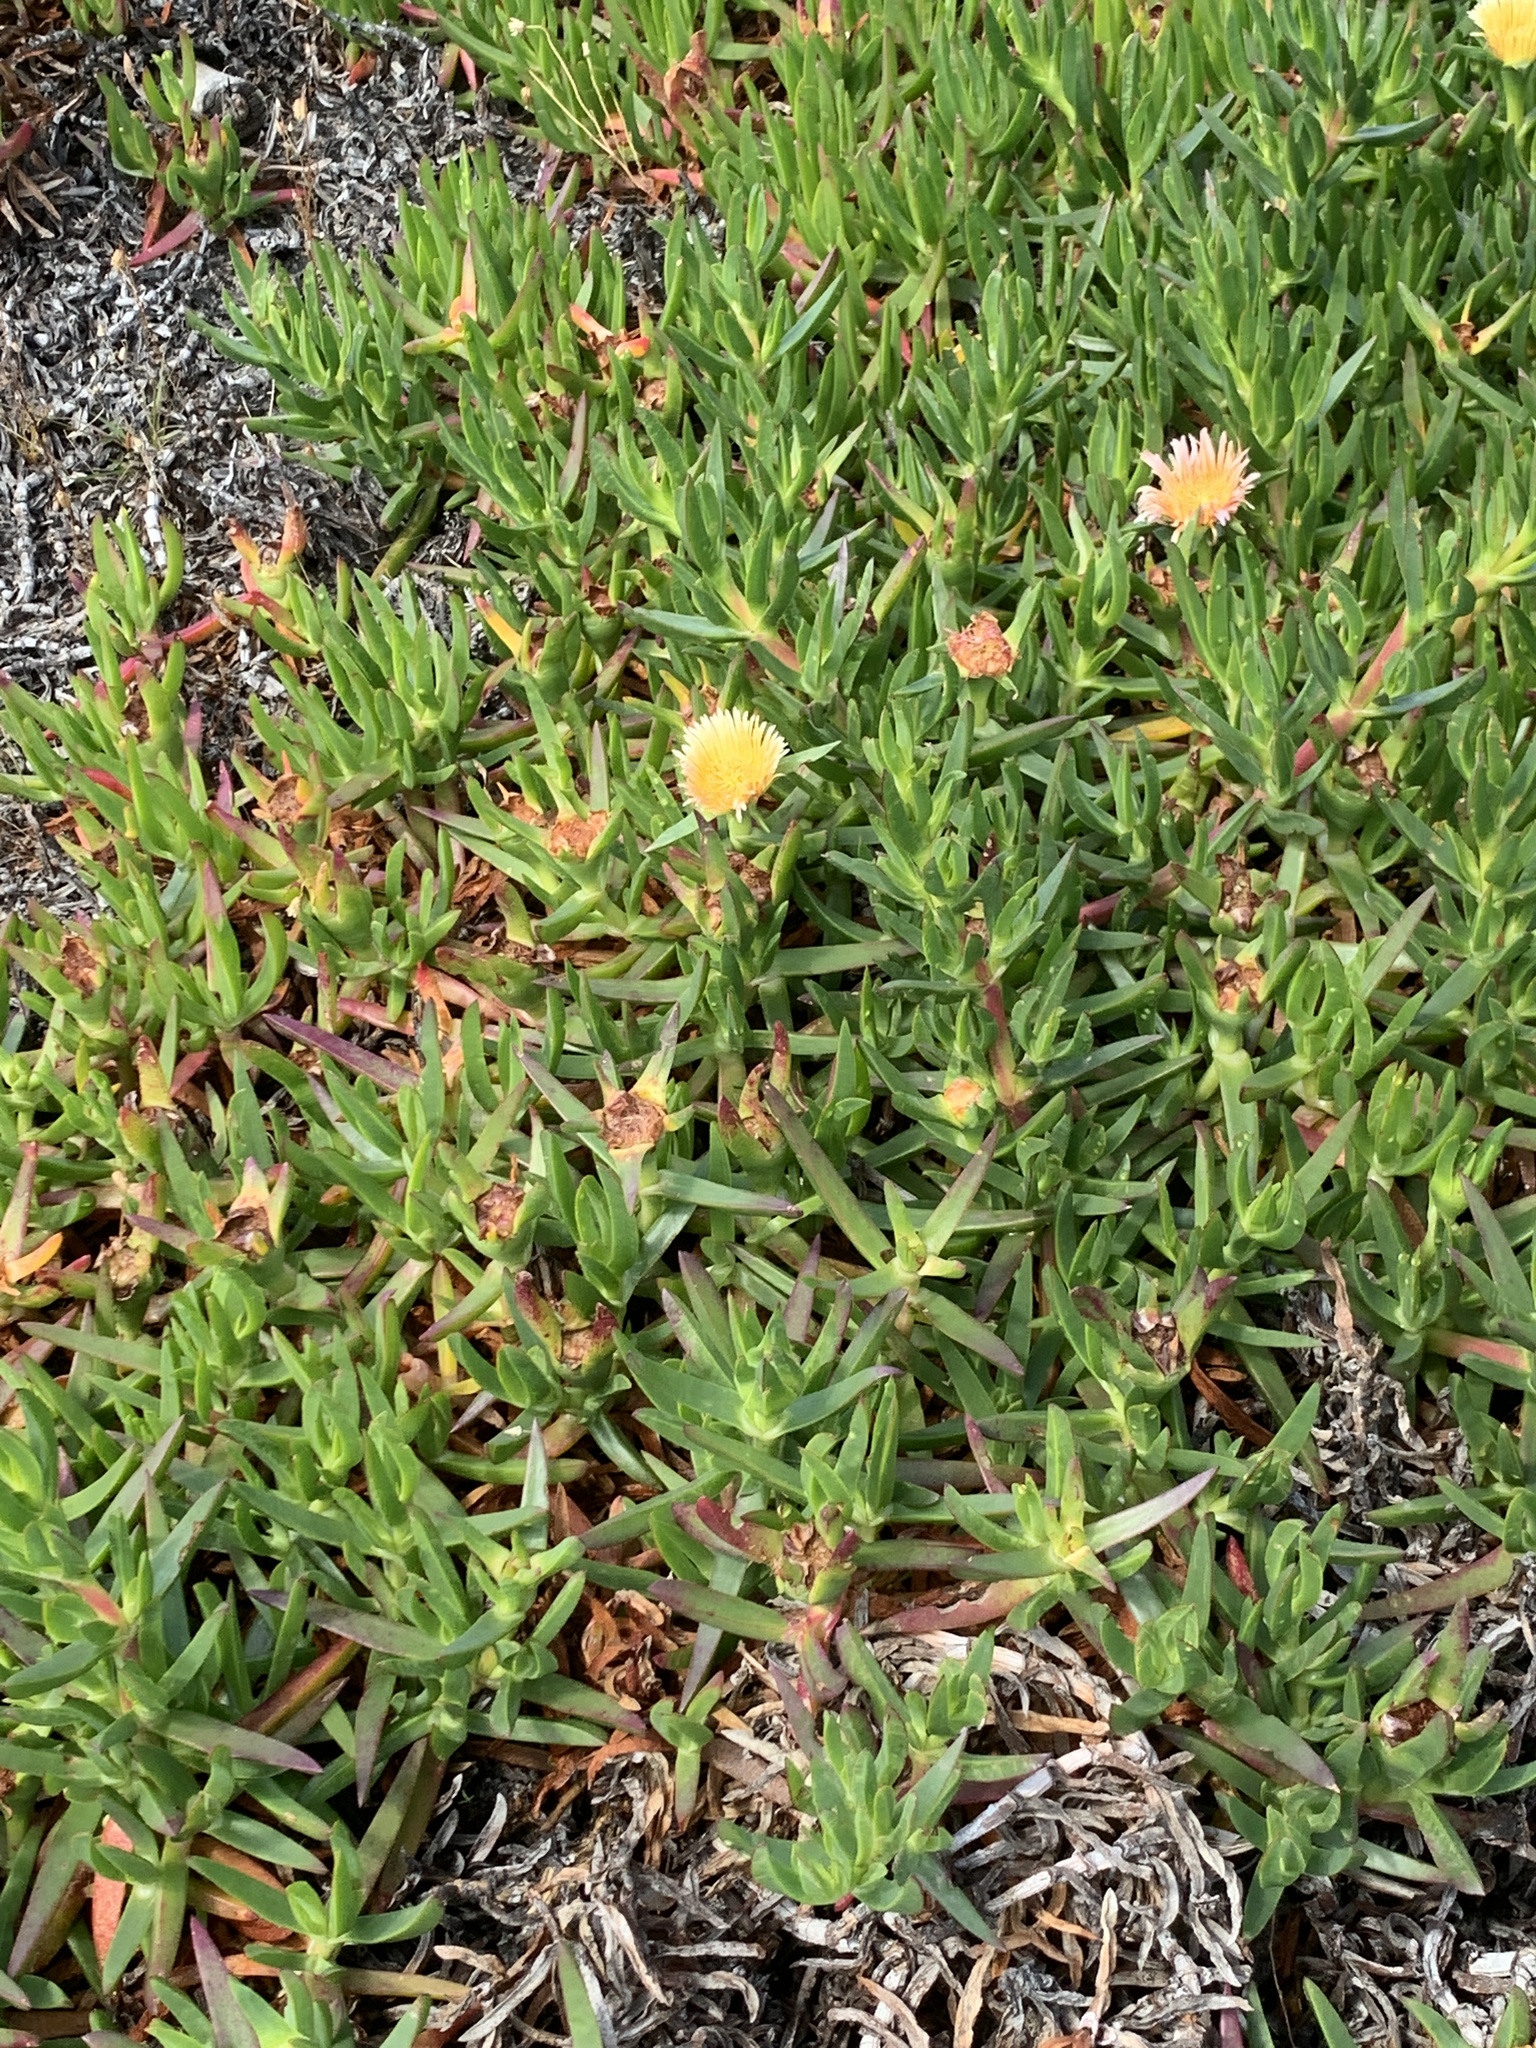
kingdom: Plantae
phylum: Tracheophyta
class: Magnoliopsida
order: Caryophyllales
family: Aizoaceae
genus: Carpobrotus
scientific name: Carpobrotus edulis
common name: Hottentot-fig
